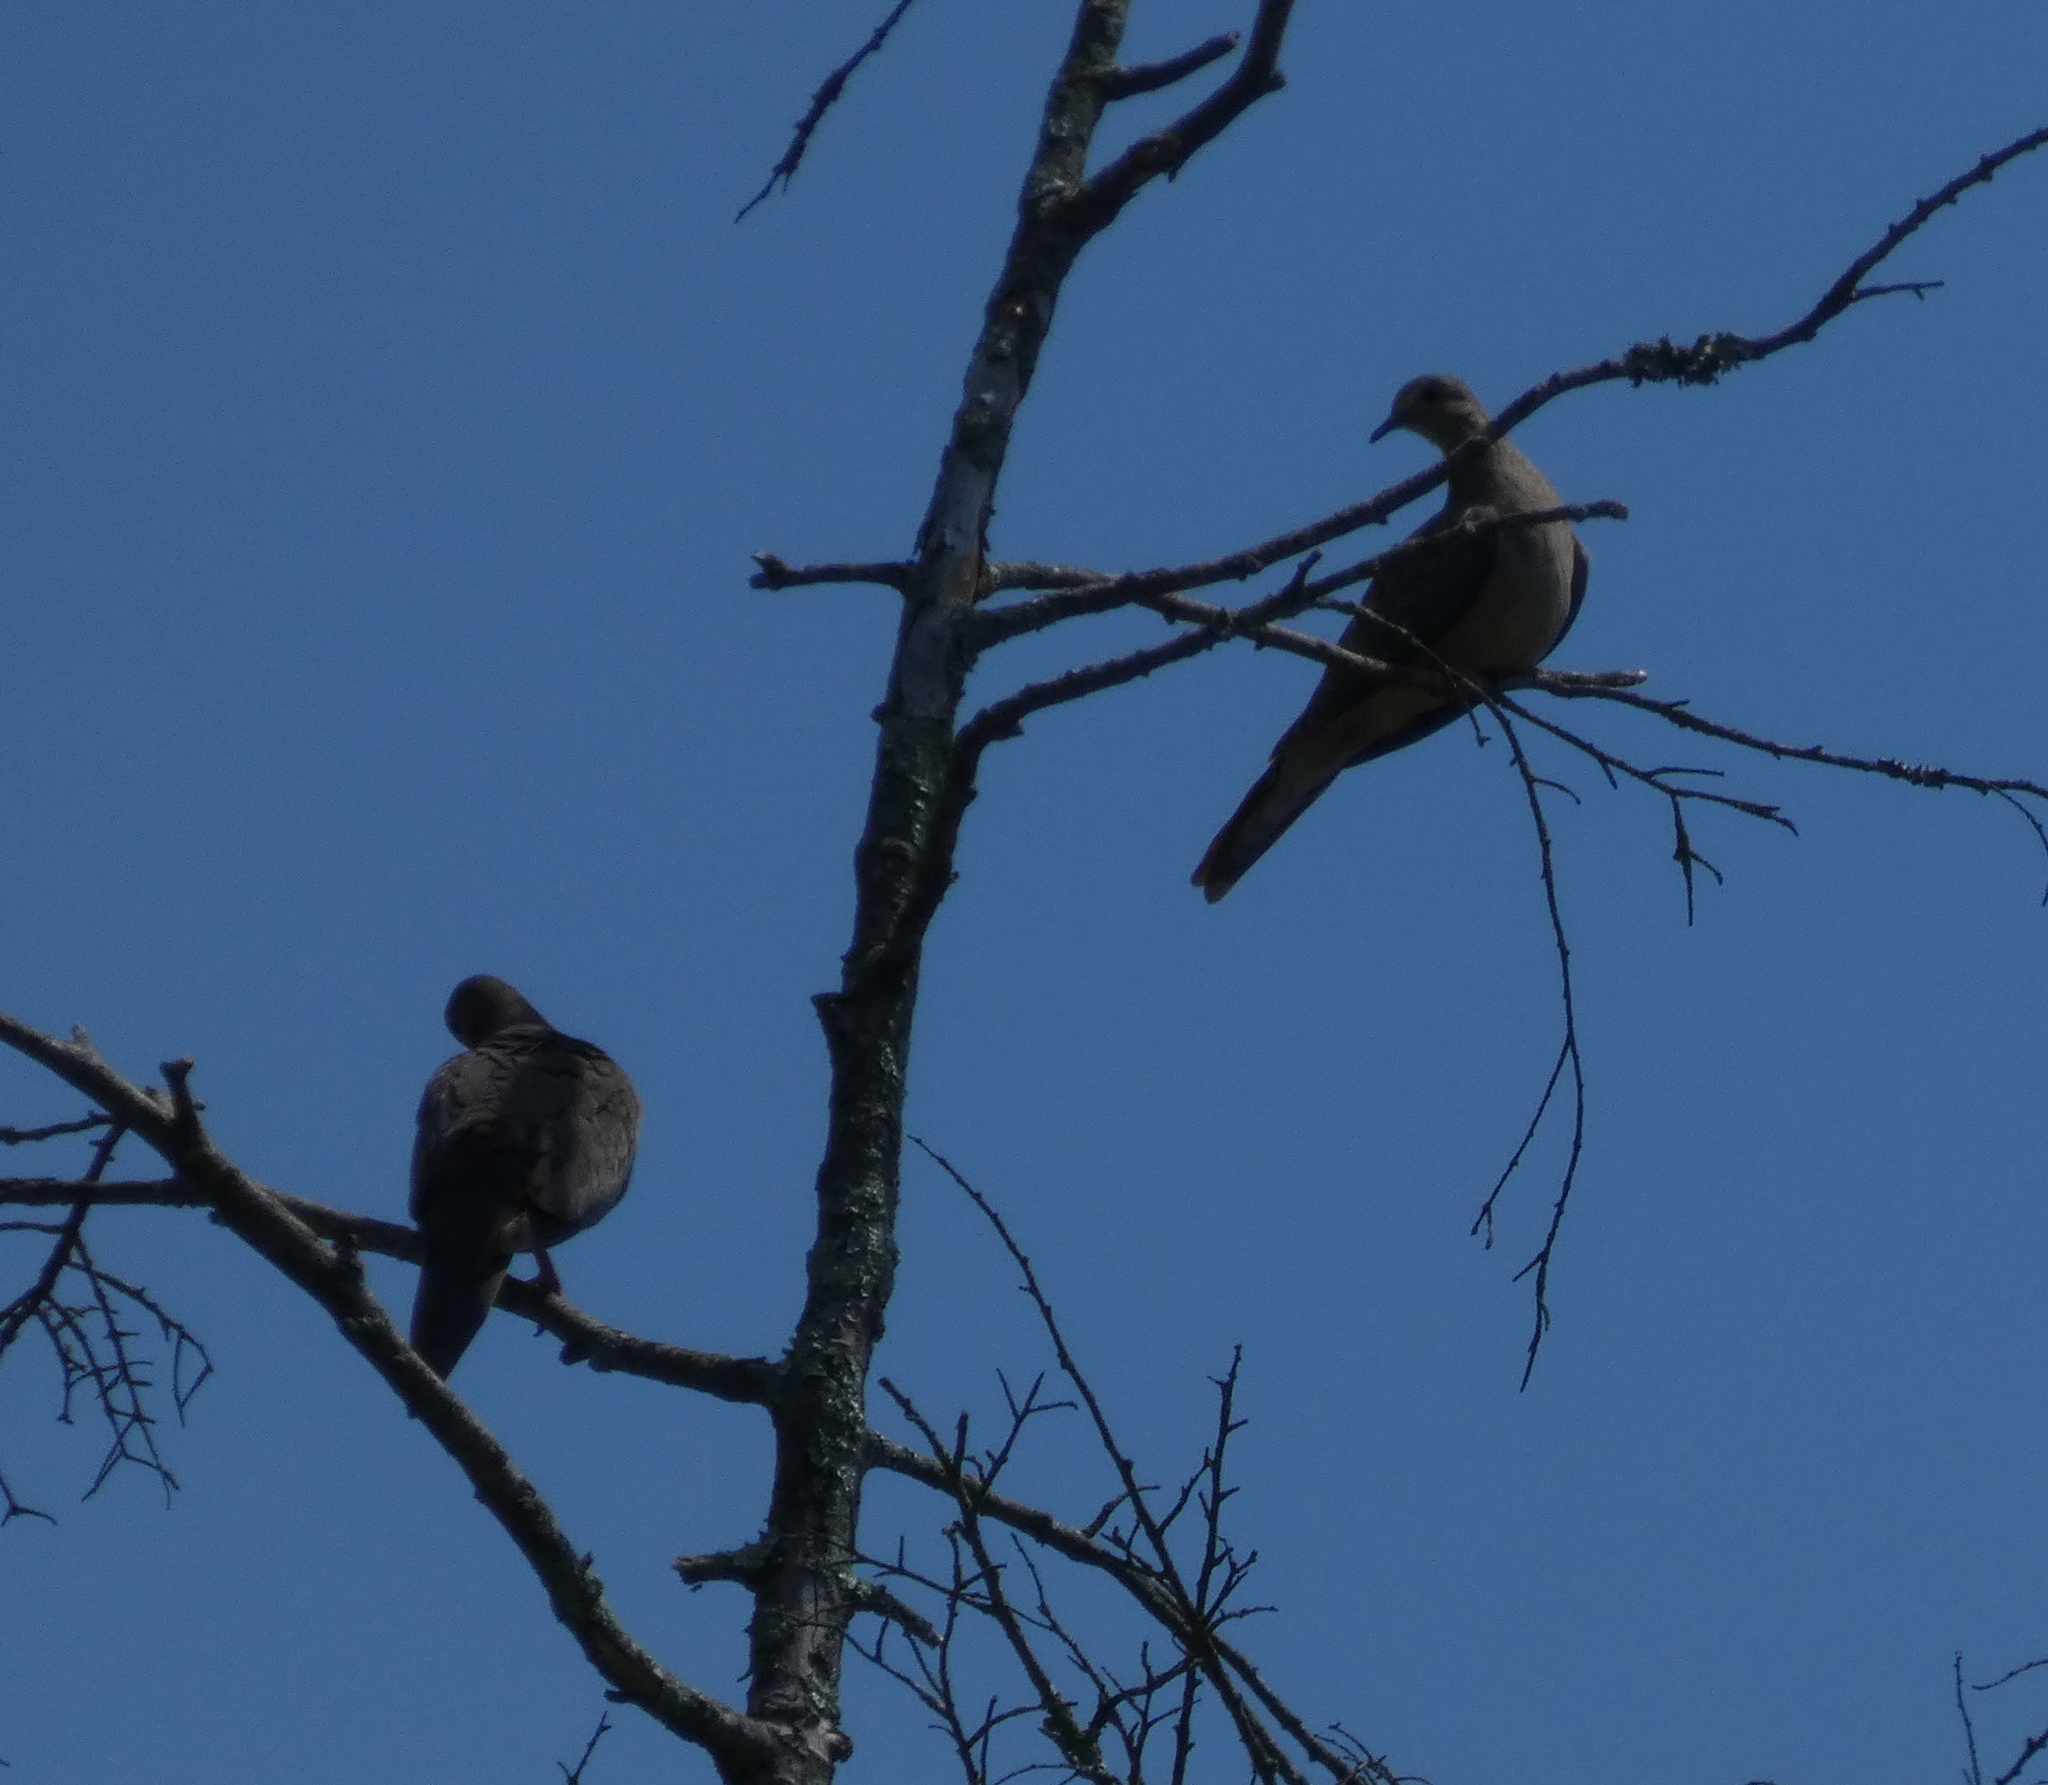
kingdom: Animalia
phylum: Chordata
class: Aves
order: Columbiformes
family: Columbidae
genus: Zenaida
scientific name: Zenaida macroura
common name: Mourning dove
